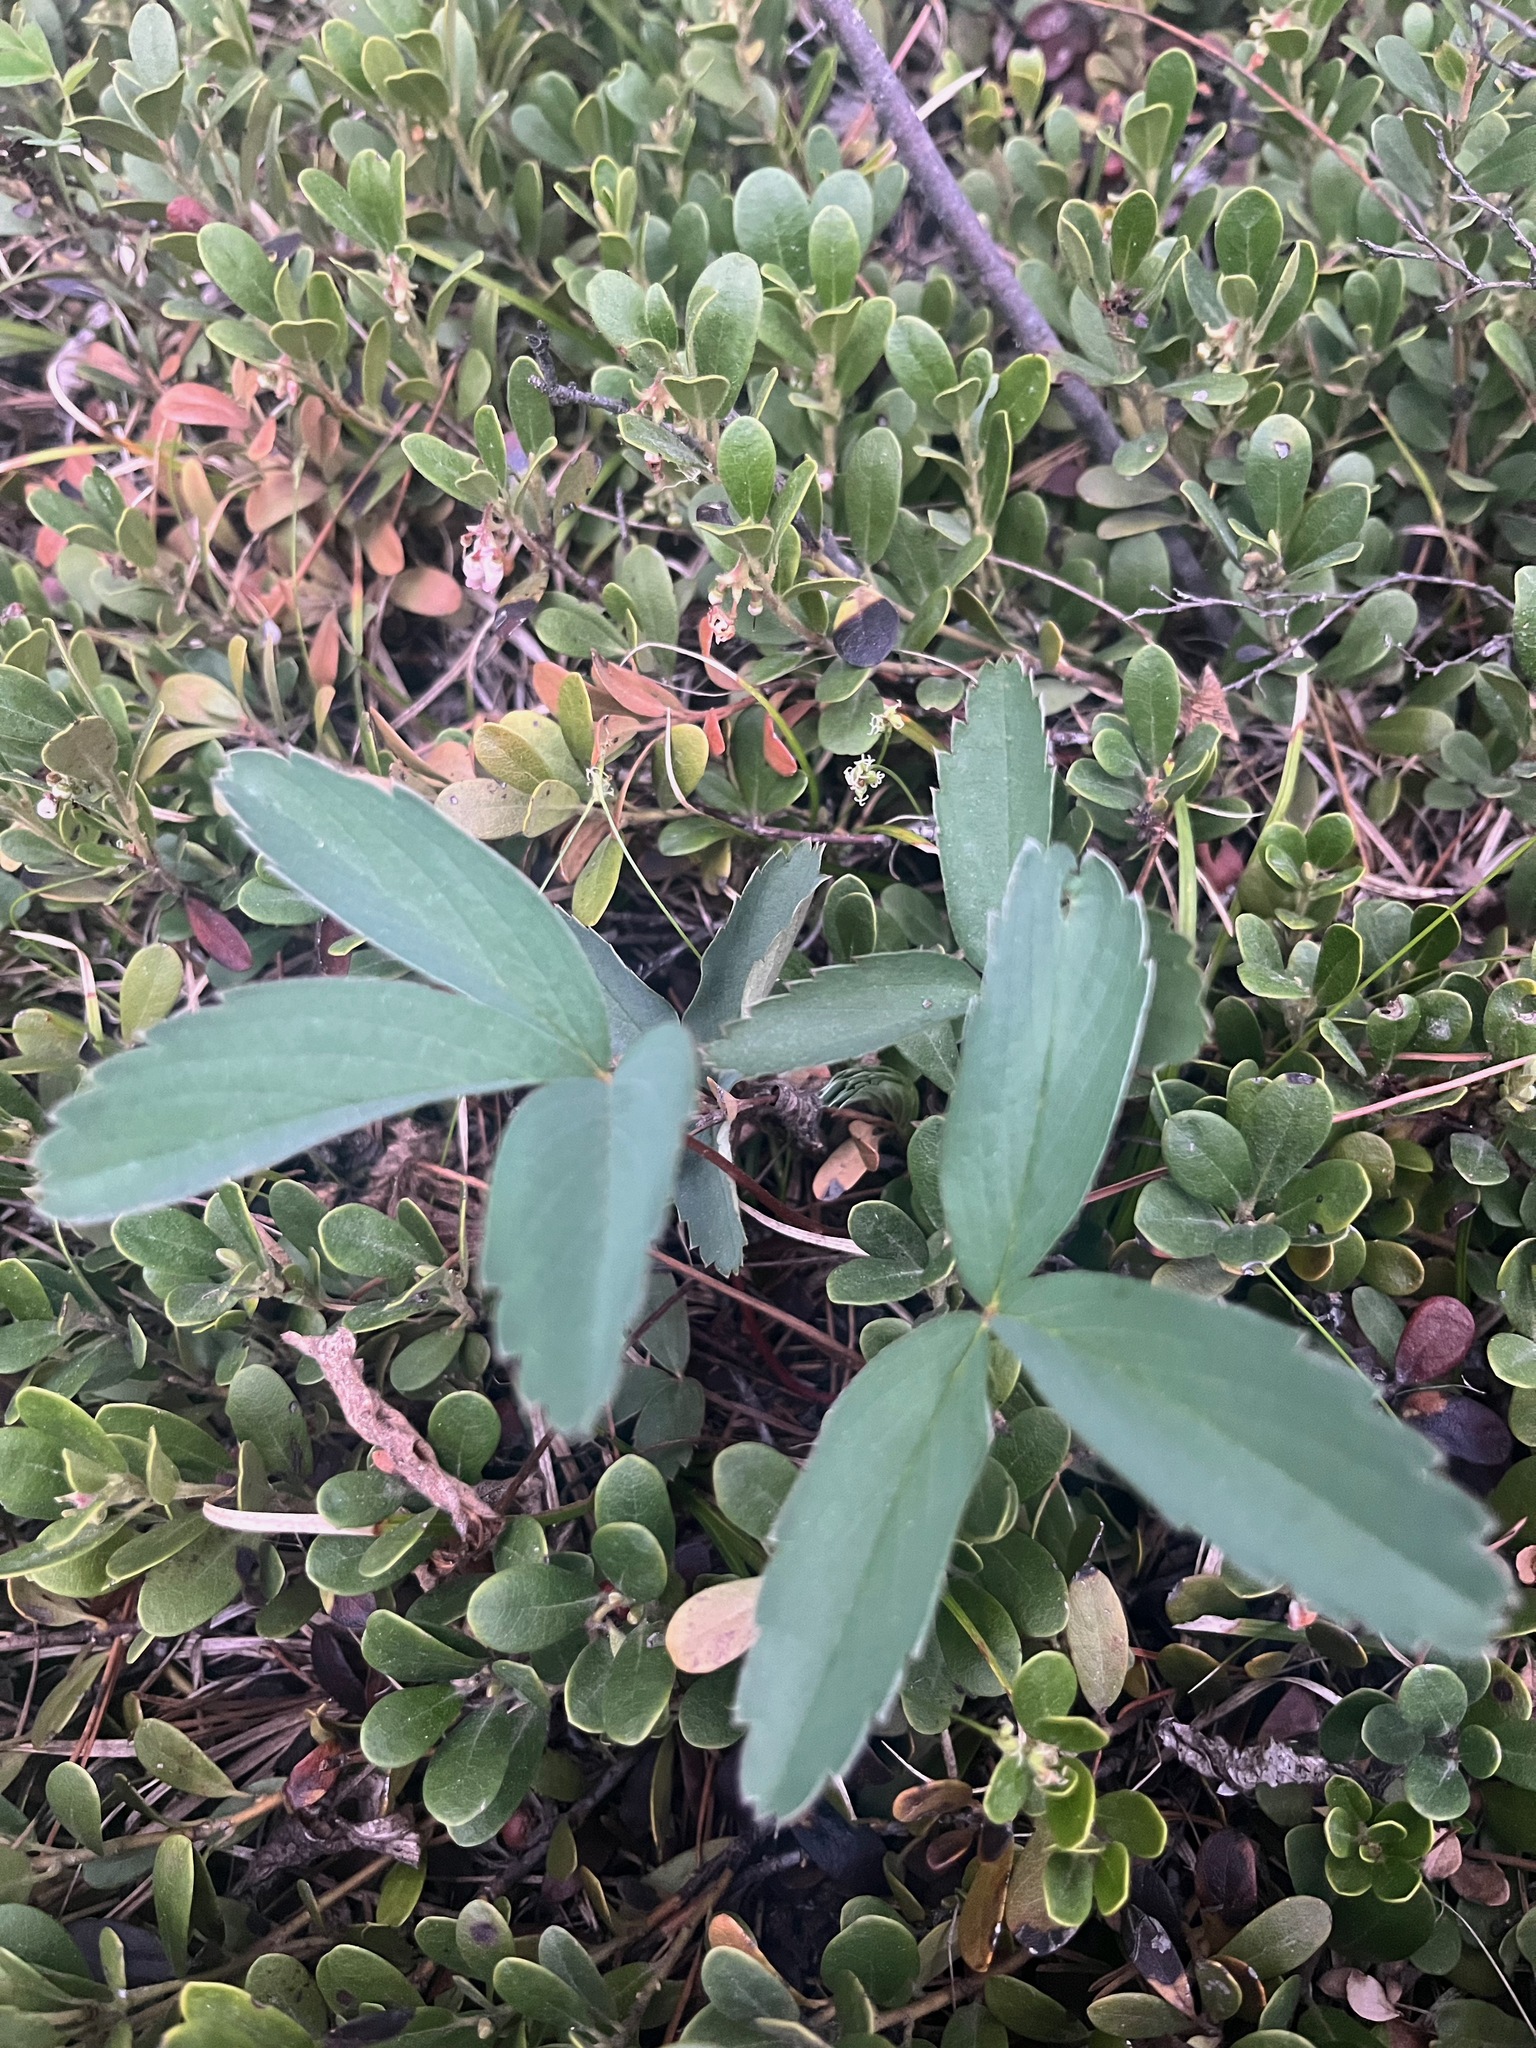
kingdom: Plantae
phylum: Tracheophyta
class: Magnoliopsida
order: Rosales
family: Rosaceae
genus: Fragaria
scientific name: Fragaria virginiana
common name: Thickleaved wild strawberry
